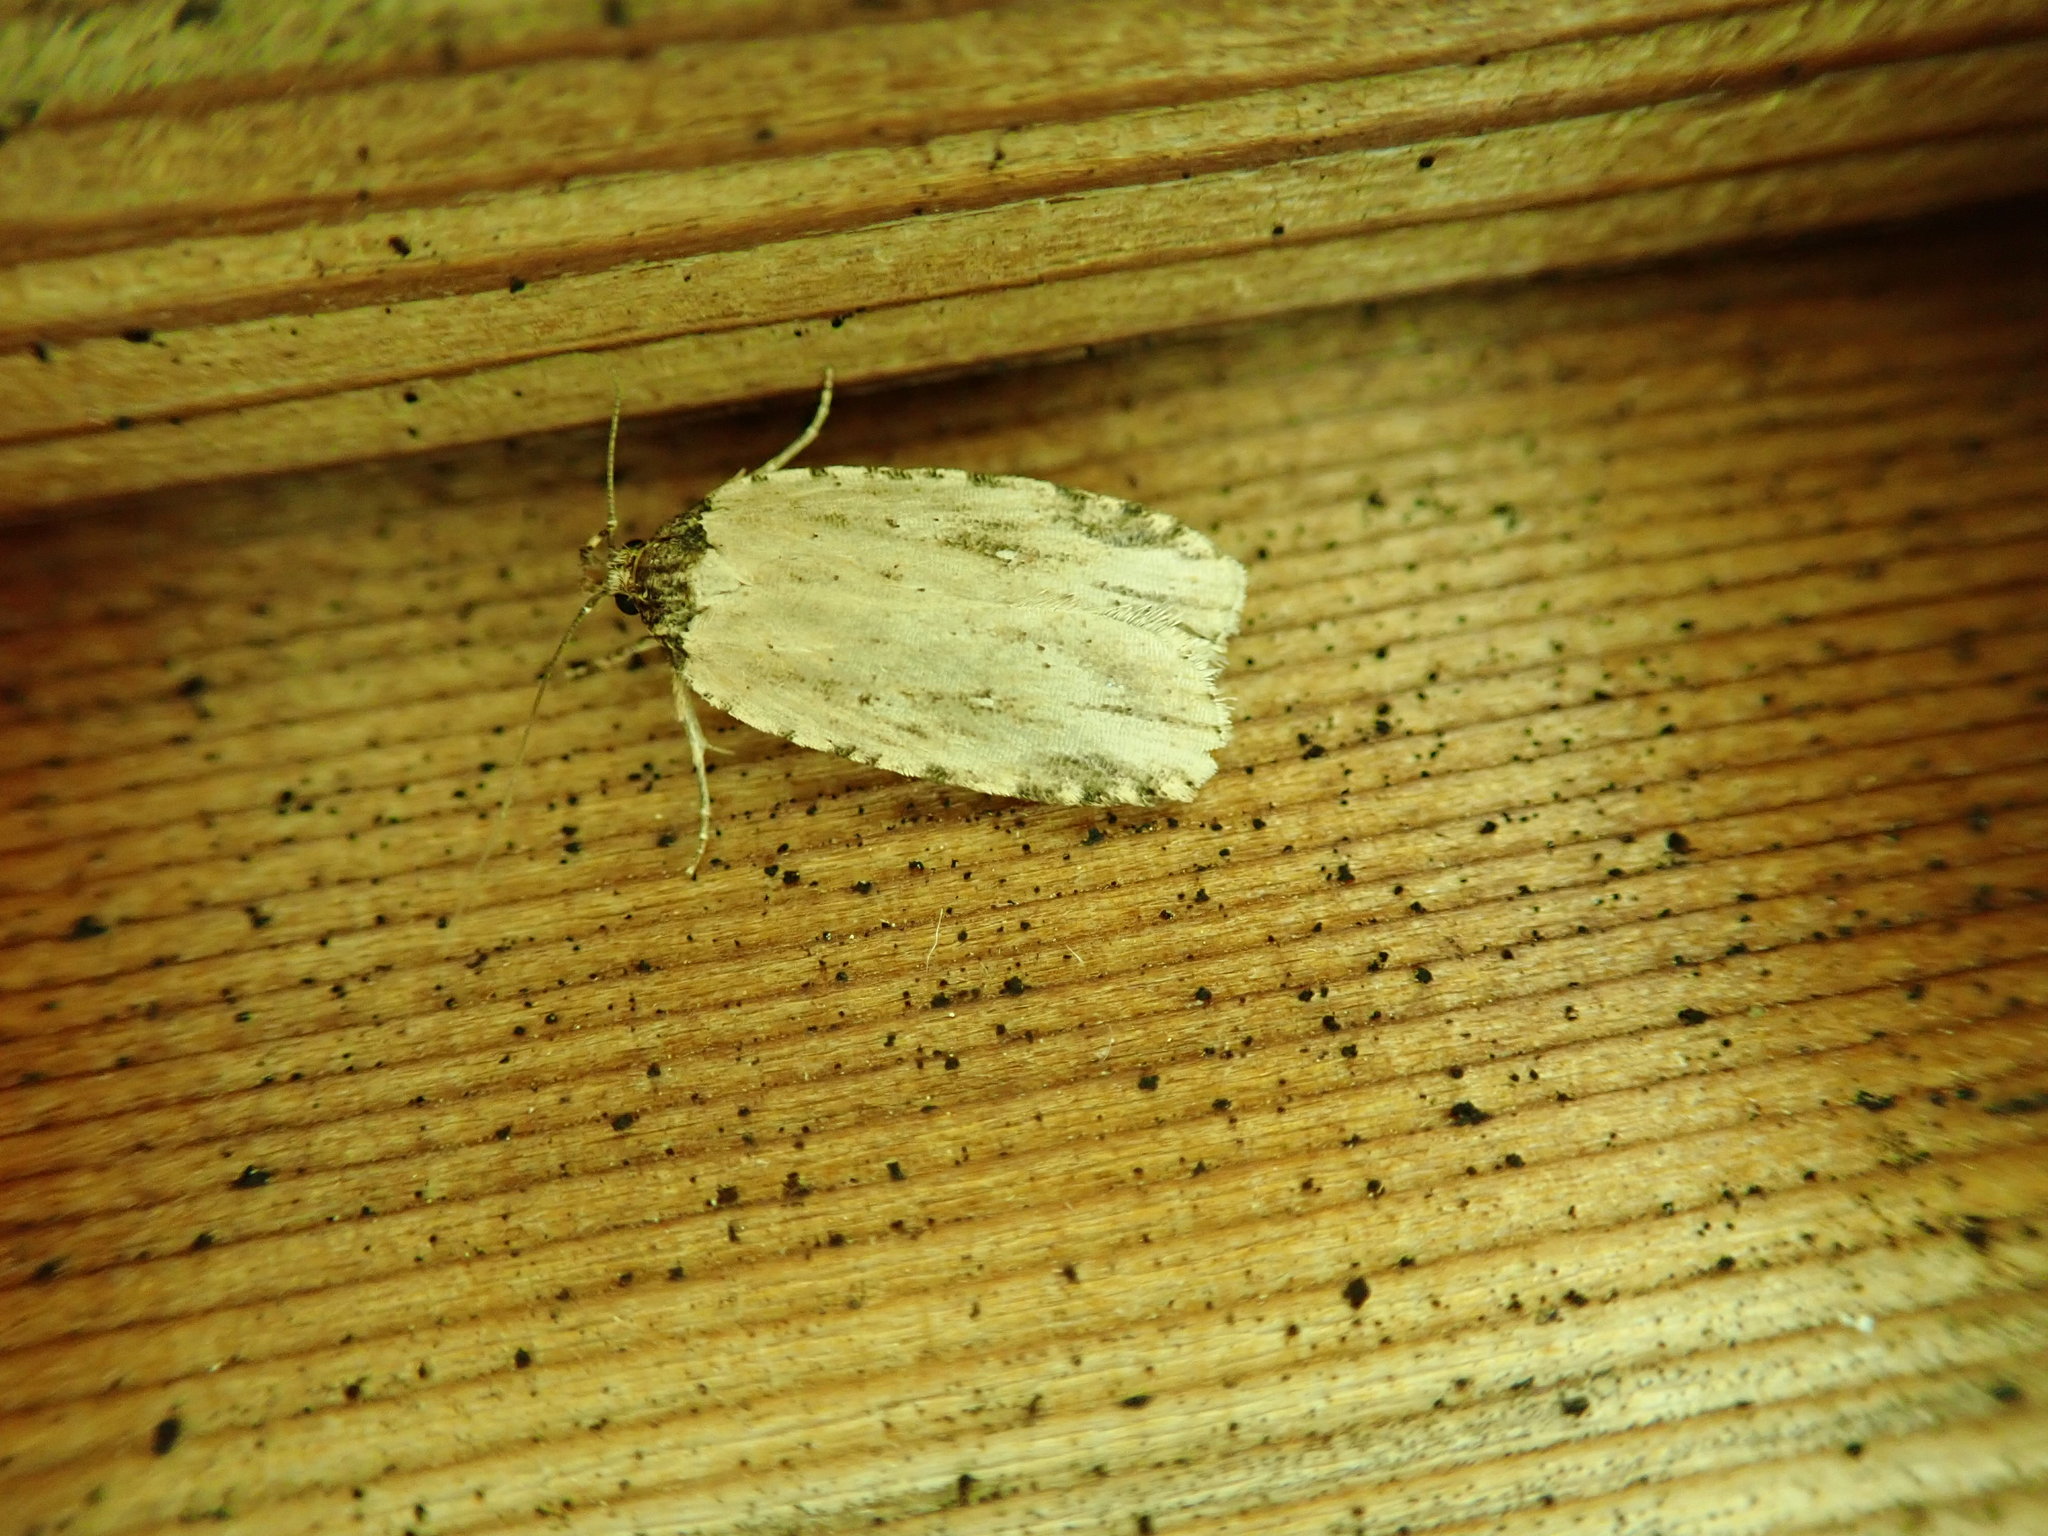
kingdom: Animalia
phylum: Arthropoda
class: Insecta
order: Lepidoptera
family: Depressariidae
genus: Agonopterix
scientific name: Agonopterix atrodorsella
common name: Beggartick leaffolder
